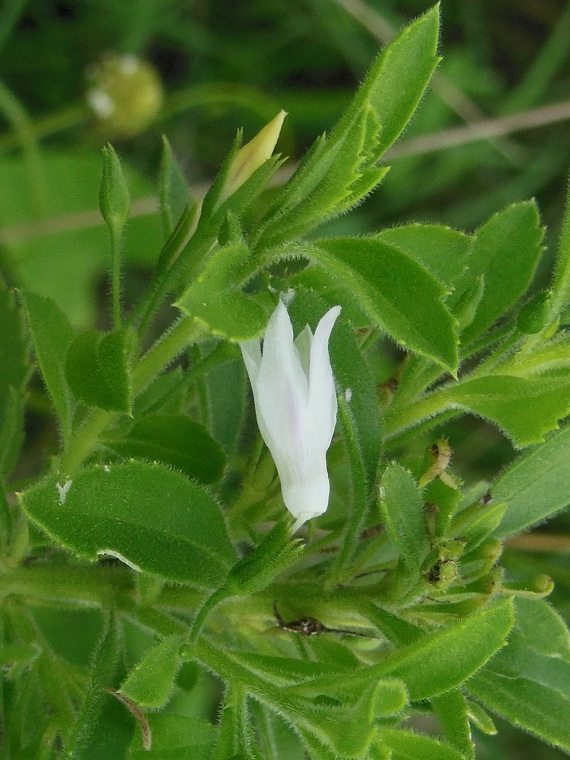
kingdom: Plantae
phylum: Tracheophyta
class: Magnoliopsida
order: Lamiales
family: Scrophulariaceae
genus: Capraria
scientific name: Capraria biflora
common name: Goatweed
